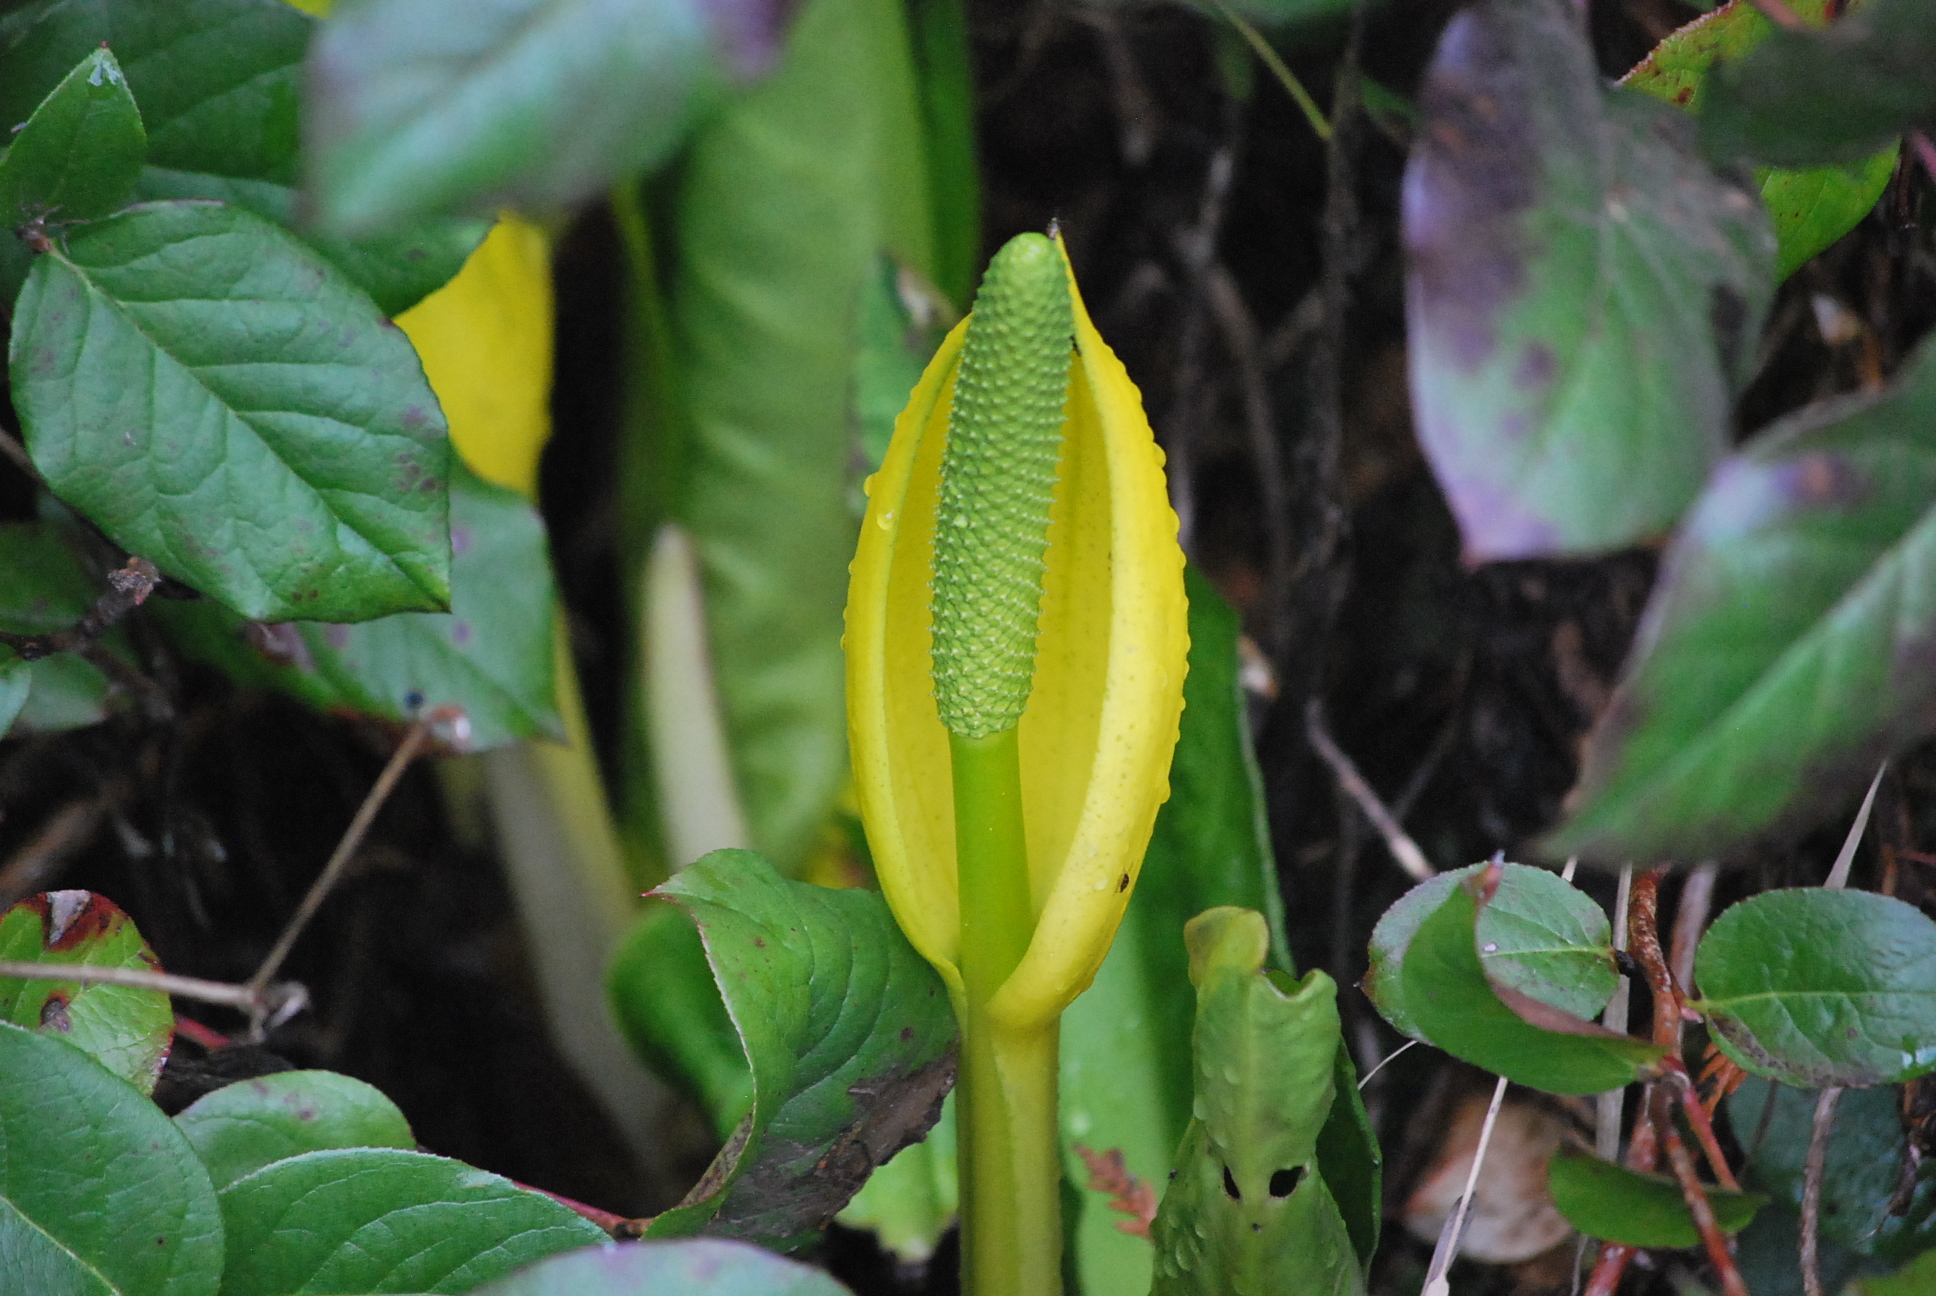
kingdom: Plantae
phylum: Tracheophyta
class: Liliopsida
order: Alismatales
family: Araceae
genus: Lysichiton
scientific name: Lysichiton americanus
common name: American skunk cabbage
